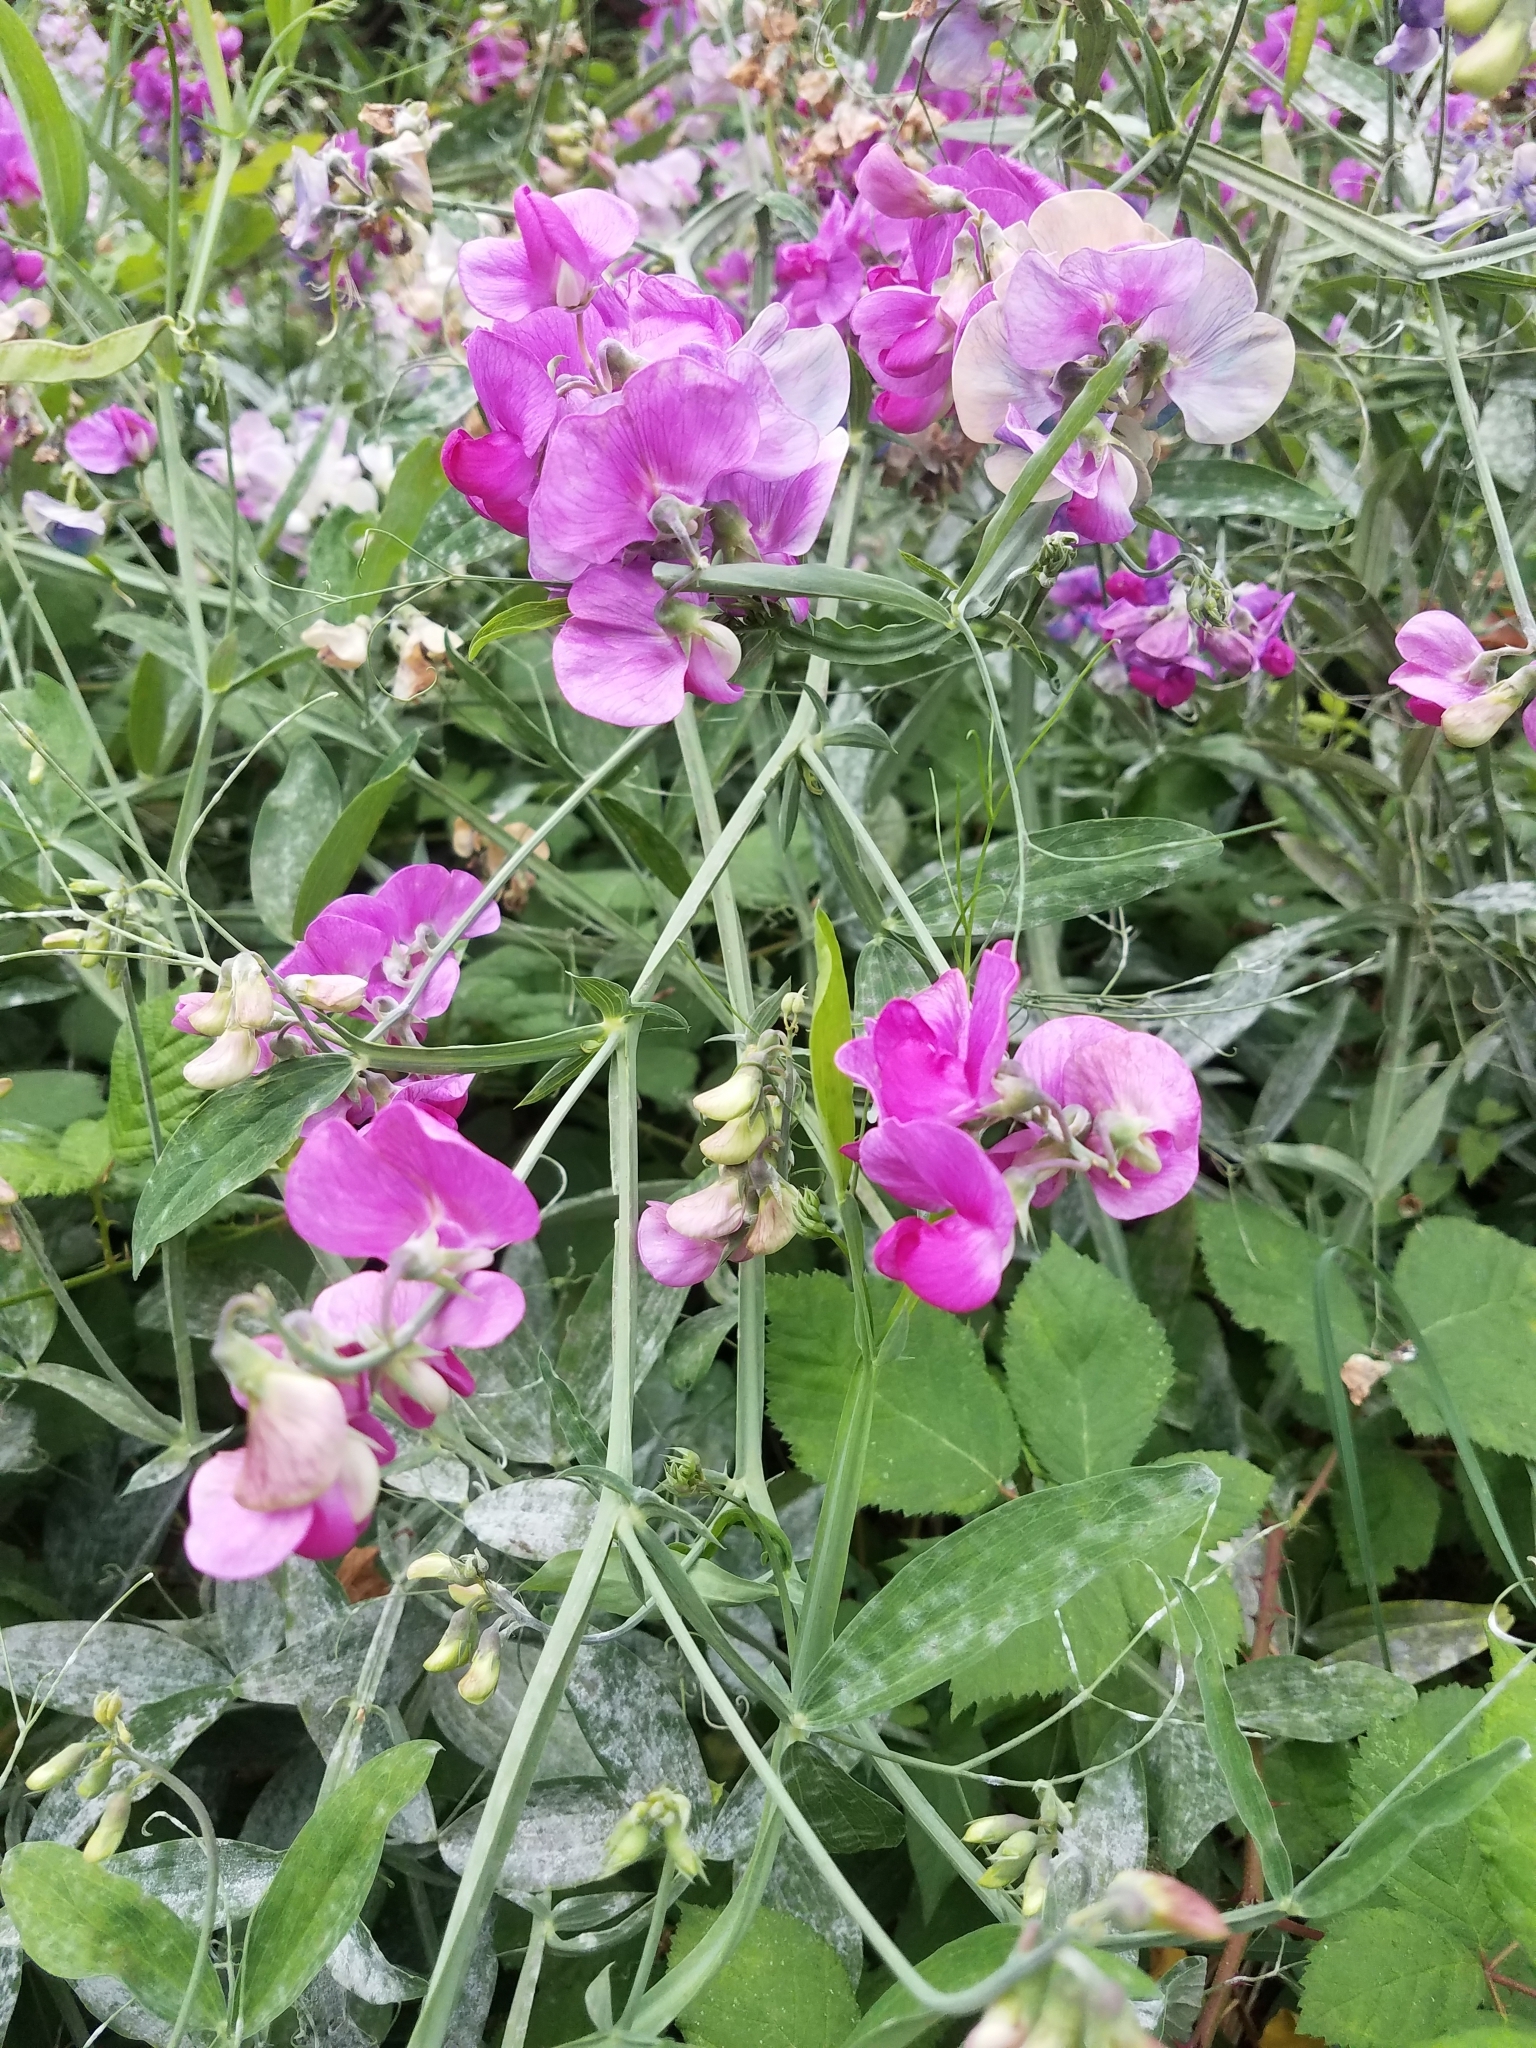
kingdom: Plantae
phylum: Tracheophyta
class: Magnoliopsida
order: Fabales
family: Fabaceae
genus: Lathyrus
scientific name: Lathyrus latifolius
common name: Perennial pea
